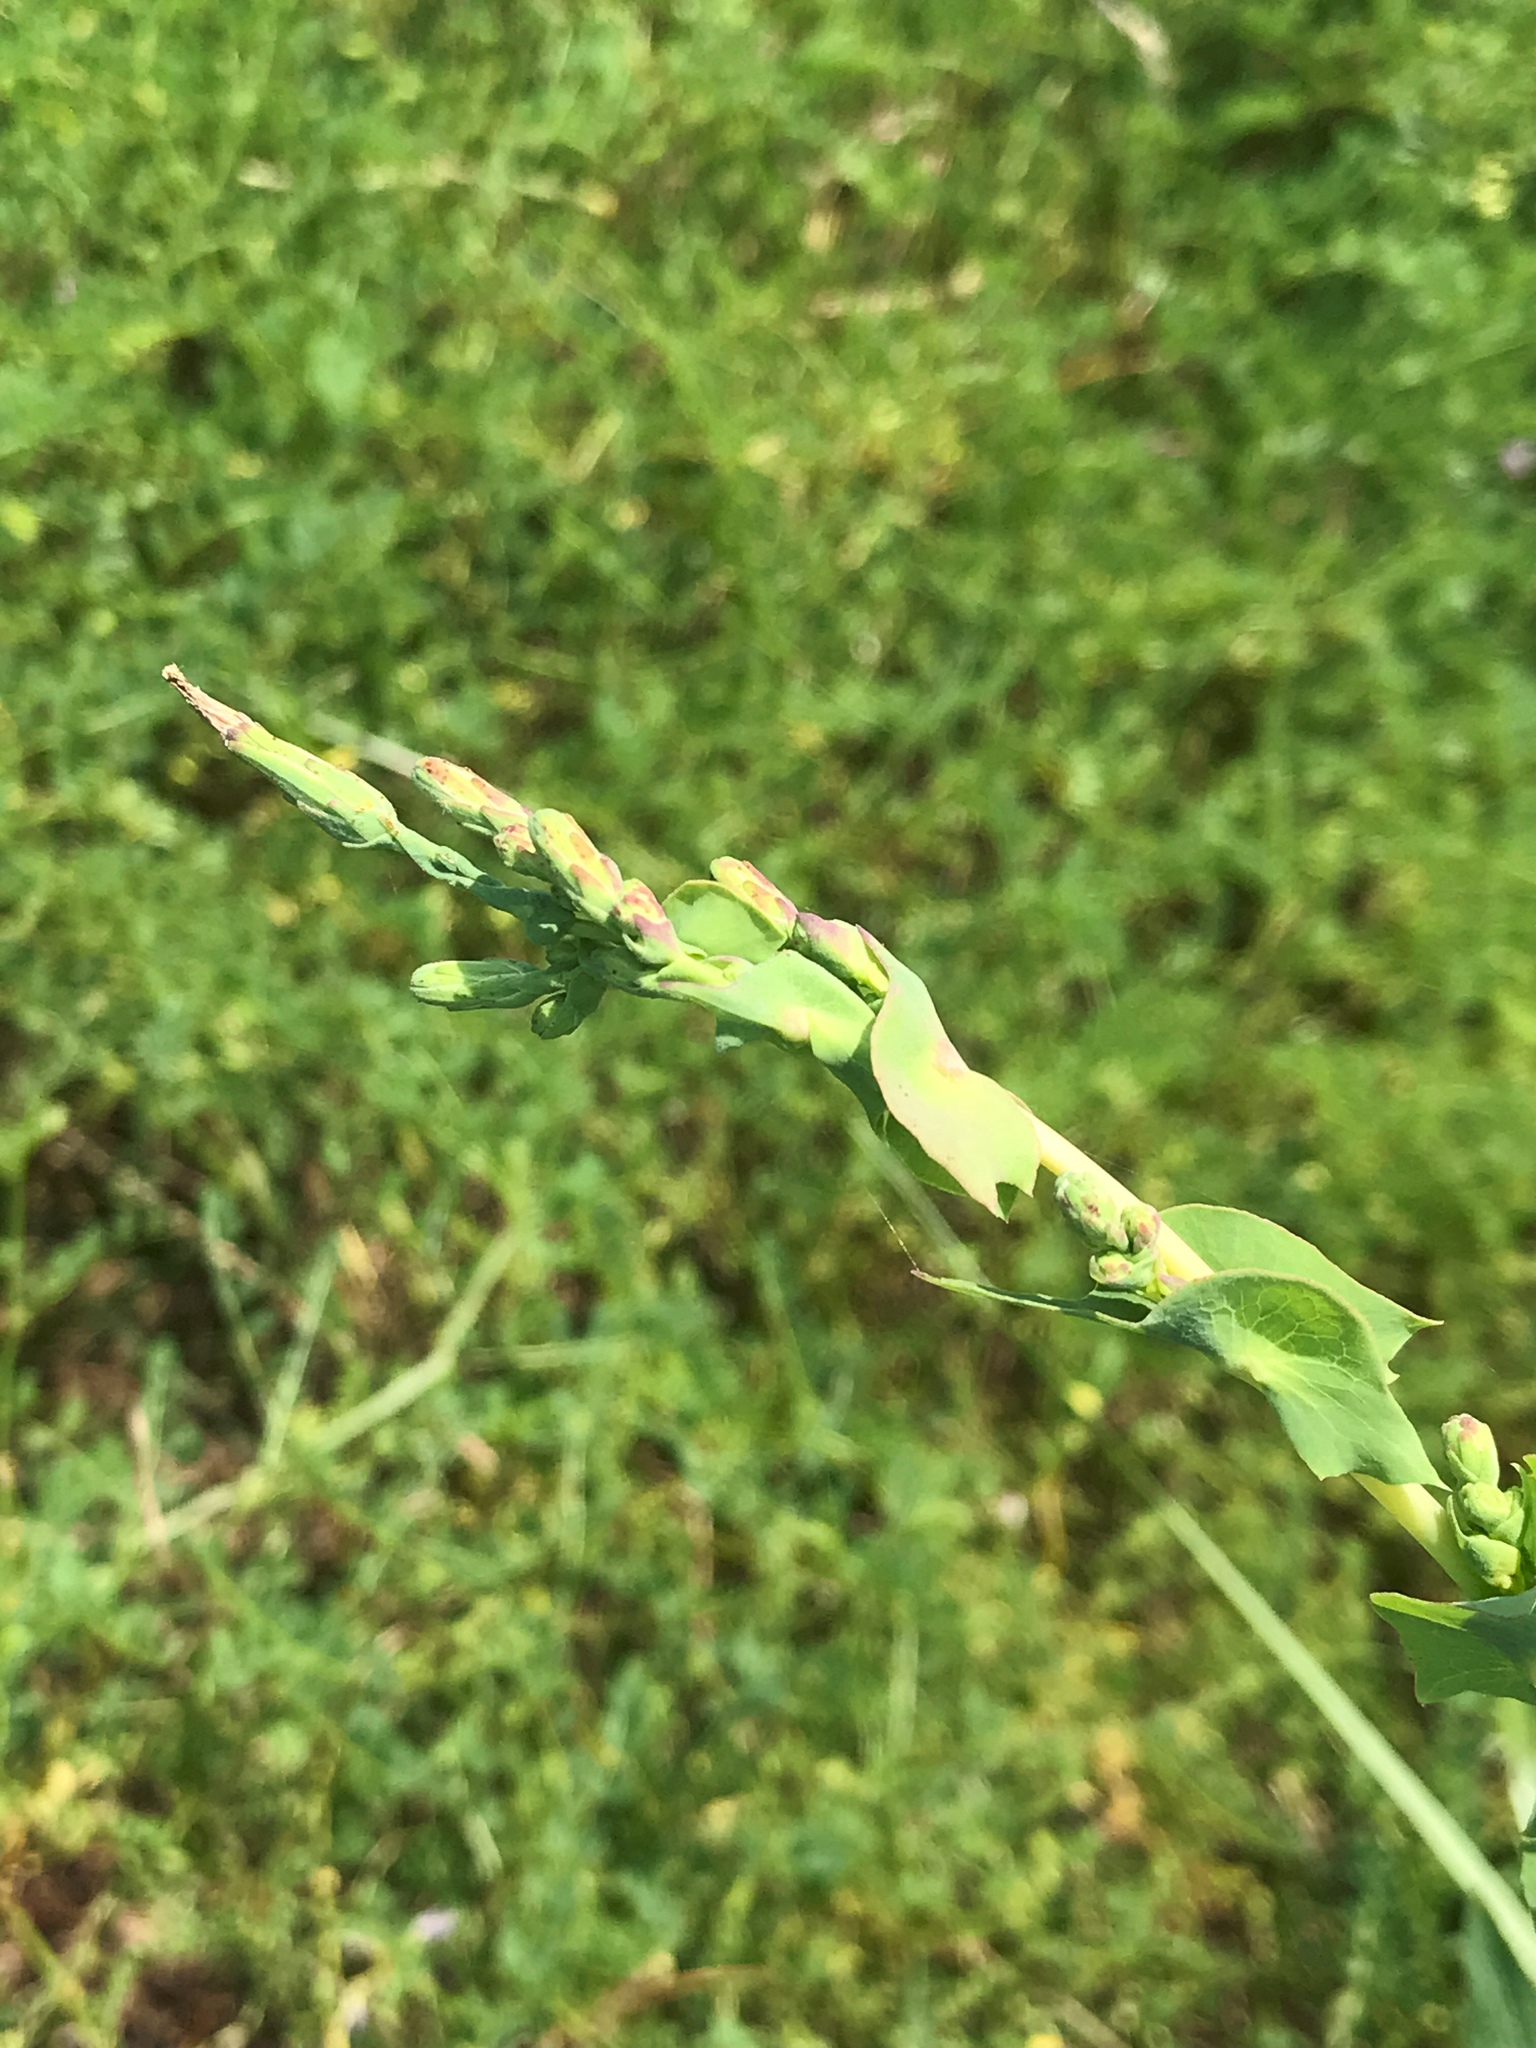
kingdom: Plantae
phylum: Tracheophyta
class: Magnoliopsida
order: Asterales
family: Asteraceae
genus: Lactuca
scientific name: Lactuca serriola
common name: Prickly lettuce
